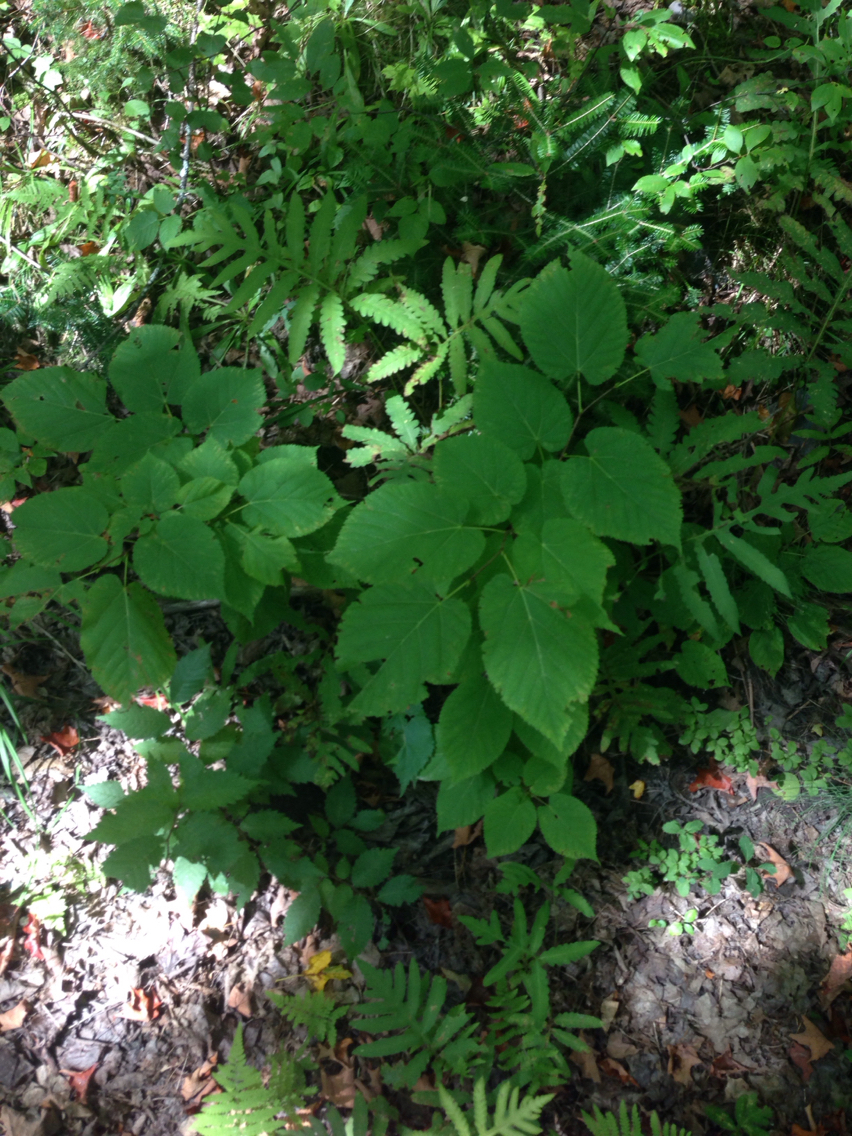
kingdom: Plantae
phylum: Tracheophyta
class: Magnoliopsida
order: Malvales
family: Malvaceae
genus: Tilia
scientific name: Tilia americana
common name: Basswood
